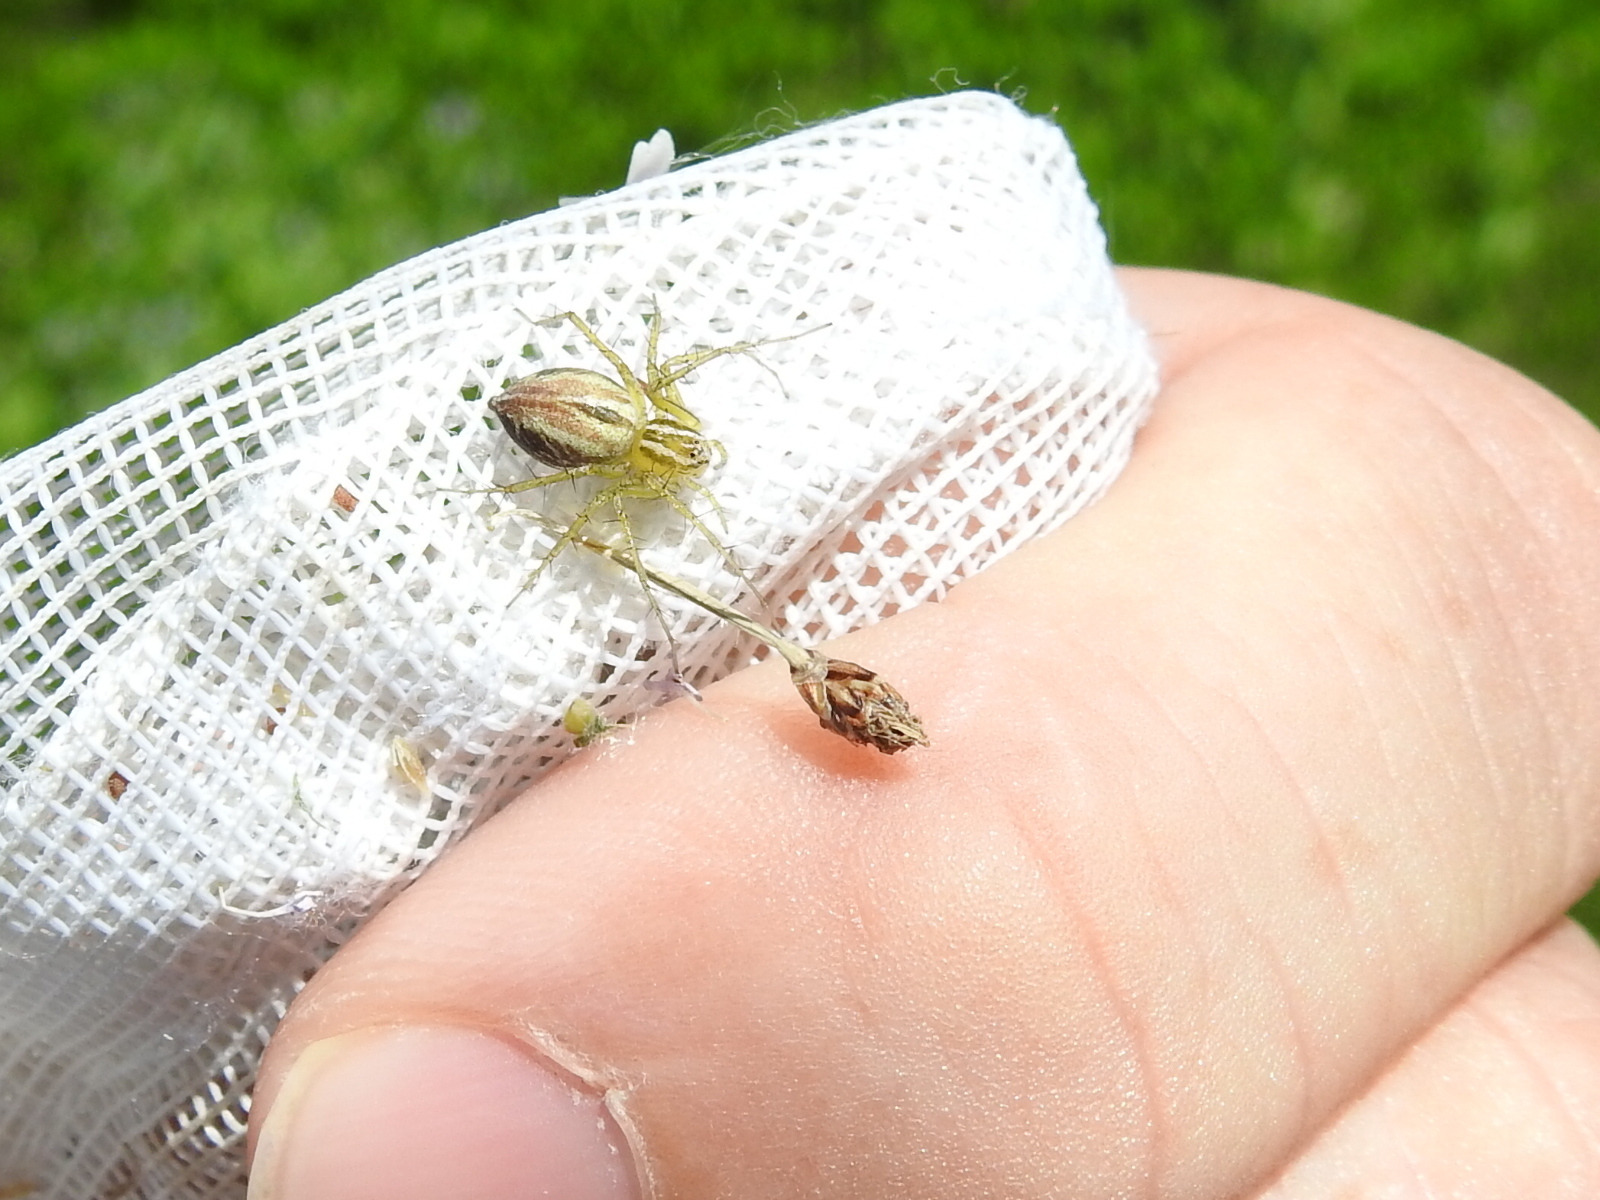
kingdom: Animalia
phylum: Arthropoda
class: Arachnida
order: Araneae
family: Oxyopidae
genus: Oxyopes
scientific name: Oxyopes salticus
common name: Lynx spiders
